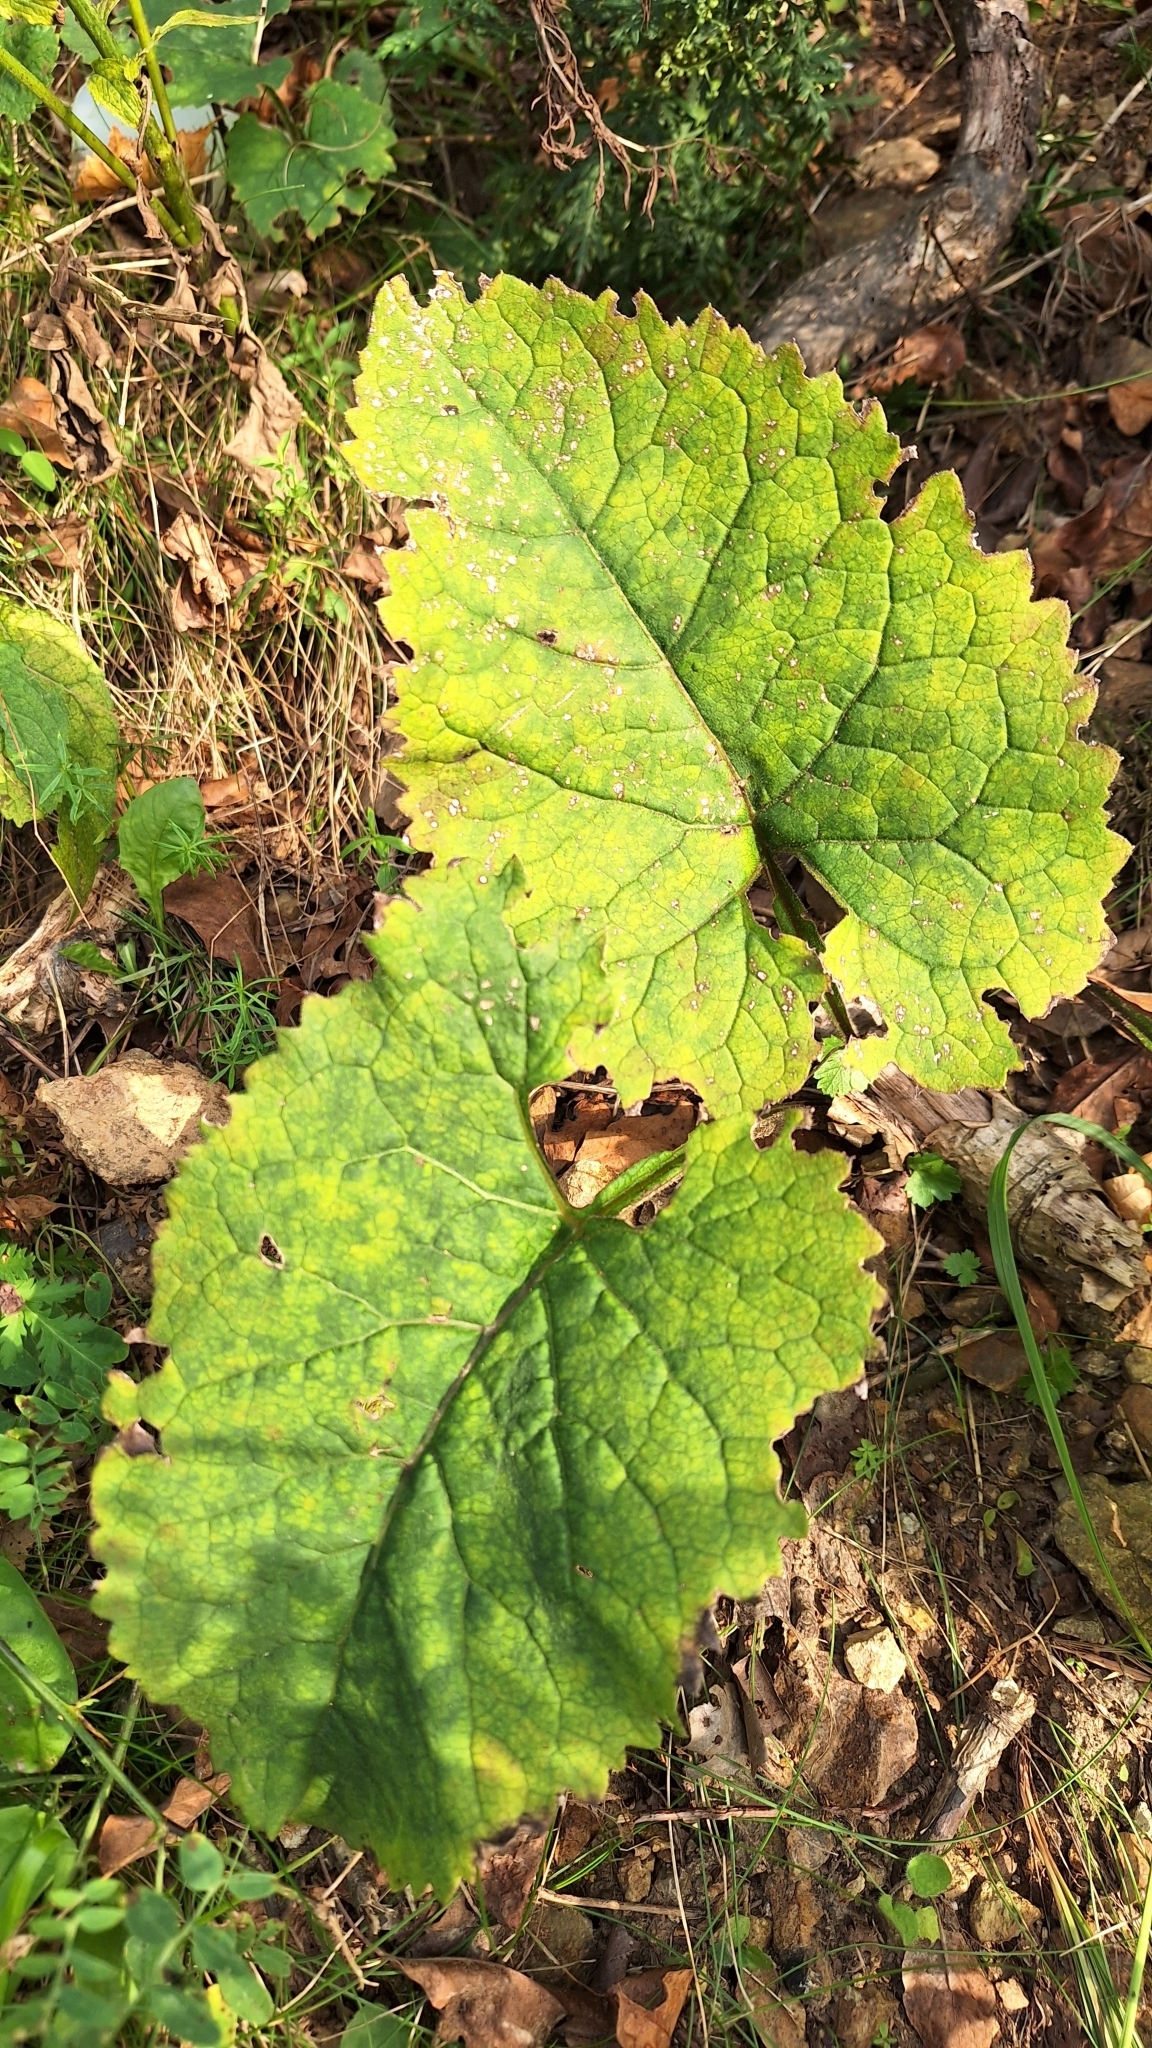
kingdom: Plantae
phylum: Tracheophyta
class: Magnoliopsida
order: Asterales
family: Asteraceae
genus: Aster
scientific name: Aster scaber
